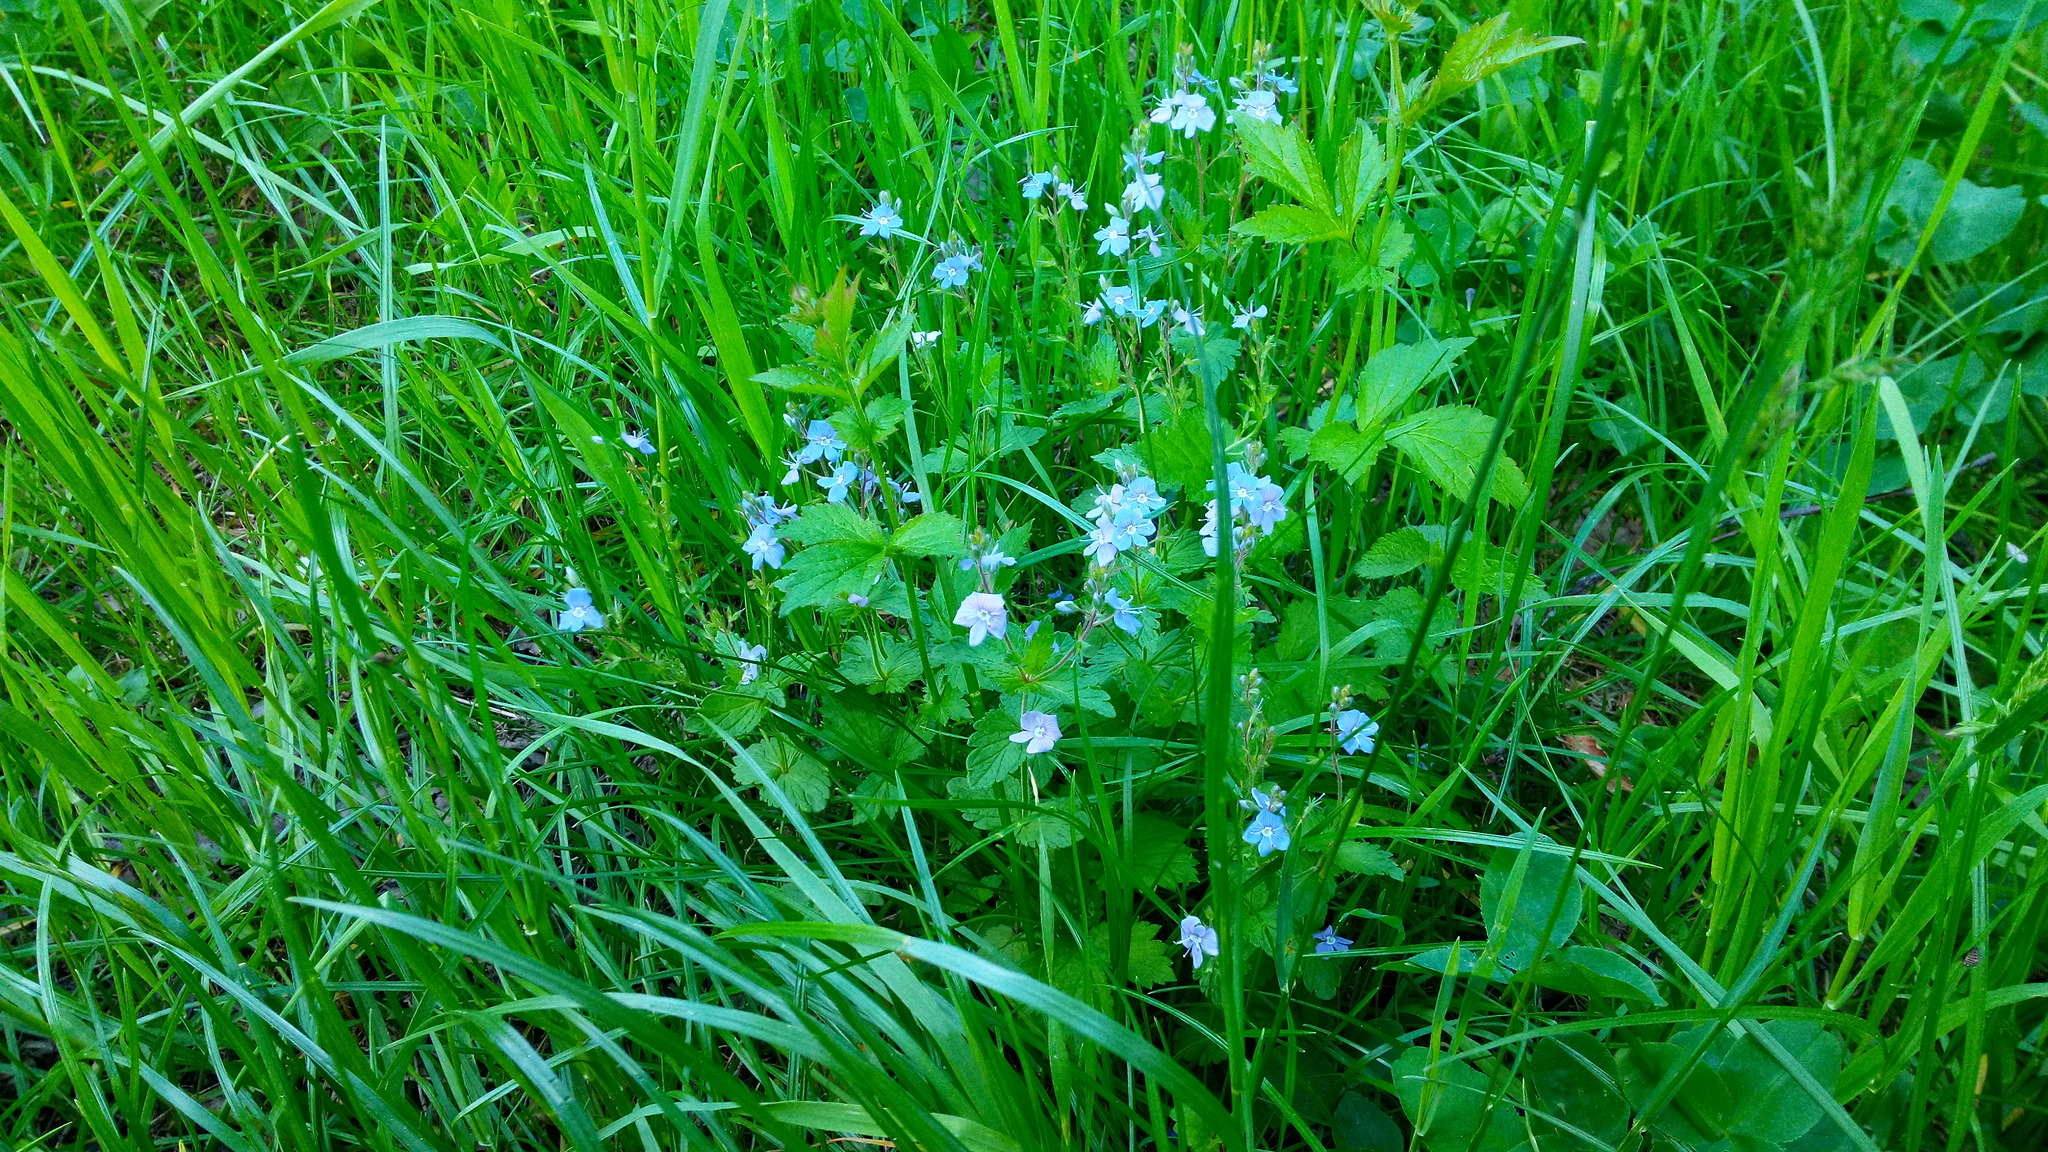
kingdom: Plantae
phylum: Tracheophyta
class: Magnoliopsida
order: Lamiales
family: Plantaginaceae
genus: Veronica
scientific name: Veronica chamaedrys
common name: Germander speedwell
